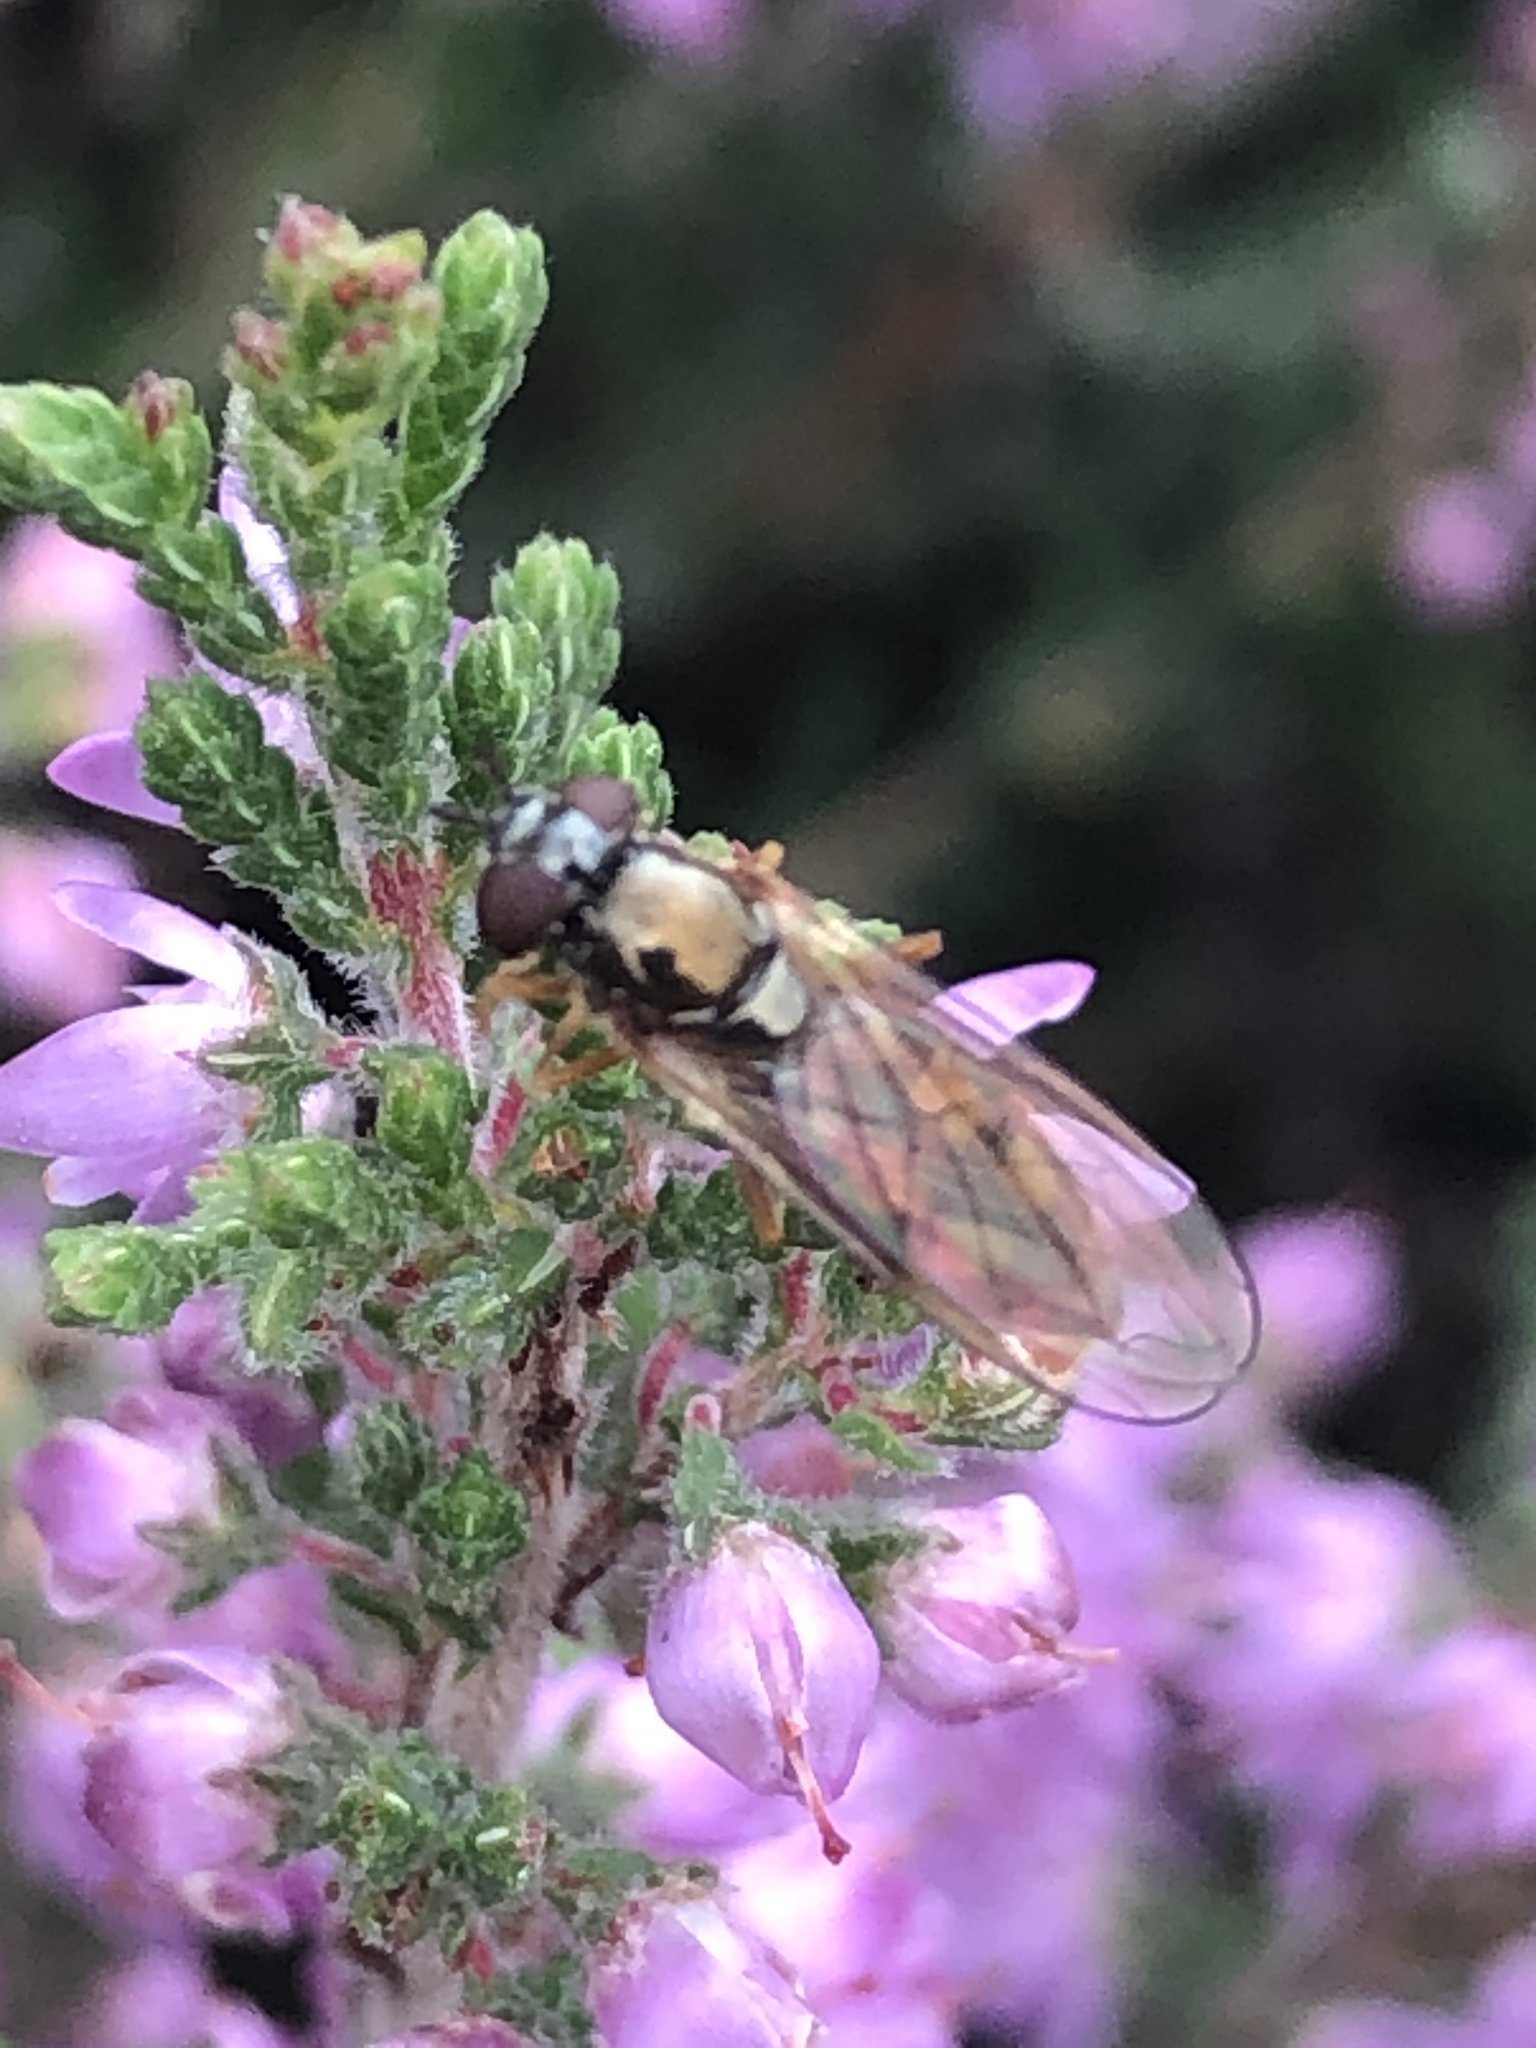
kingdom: Animalia
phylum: Arthropoda
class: Insecta
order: Diptera
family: Syrphidae
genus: Melanostoma
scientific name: Melanostoma
